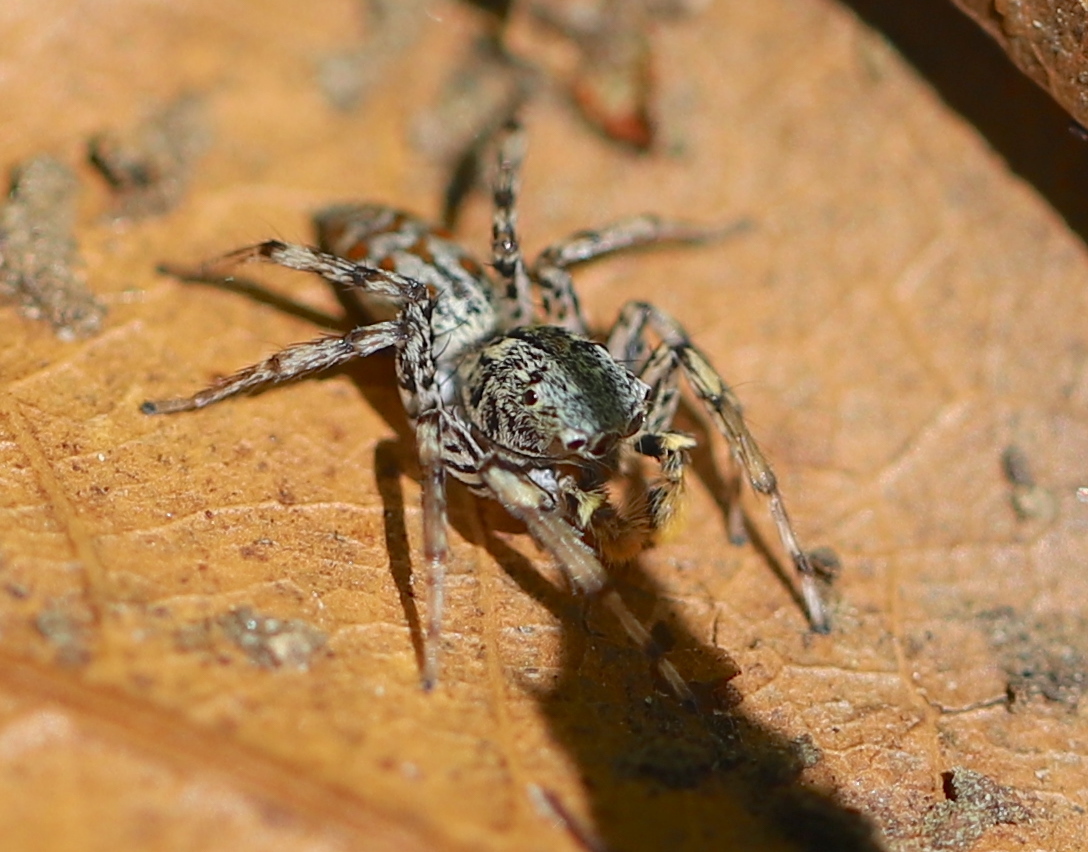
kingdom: Animalia
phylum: Arthropoda
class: Arachnida
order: Araneae
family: Salticidae
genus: Maevia
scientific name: Maevia inclemens
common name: Dimorphic jumper
